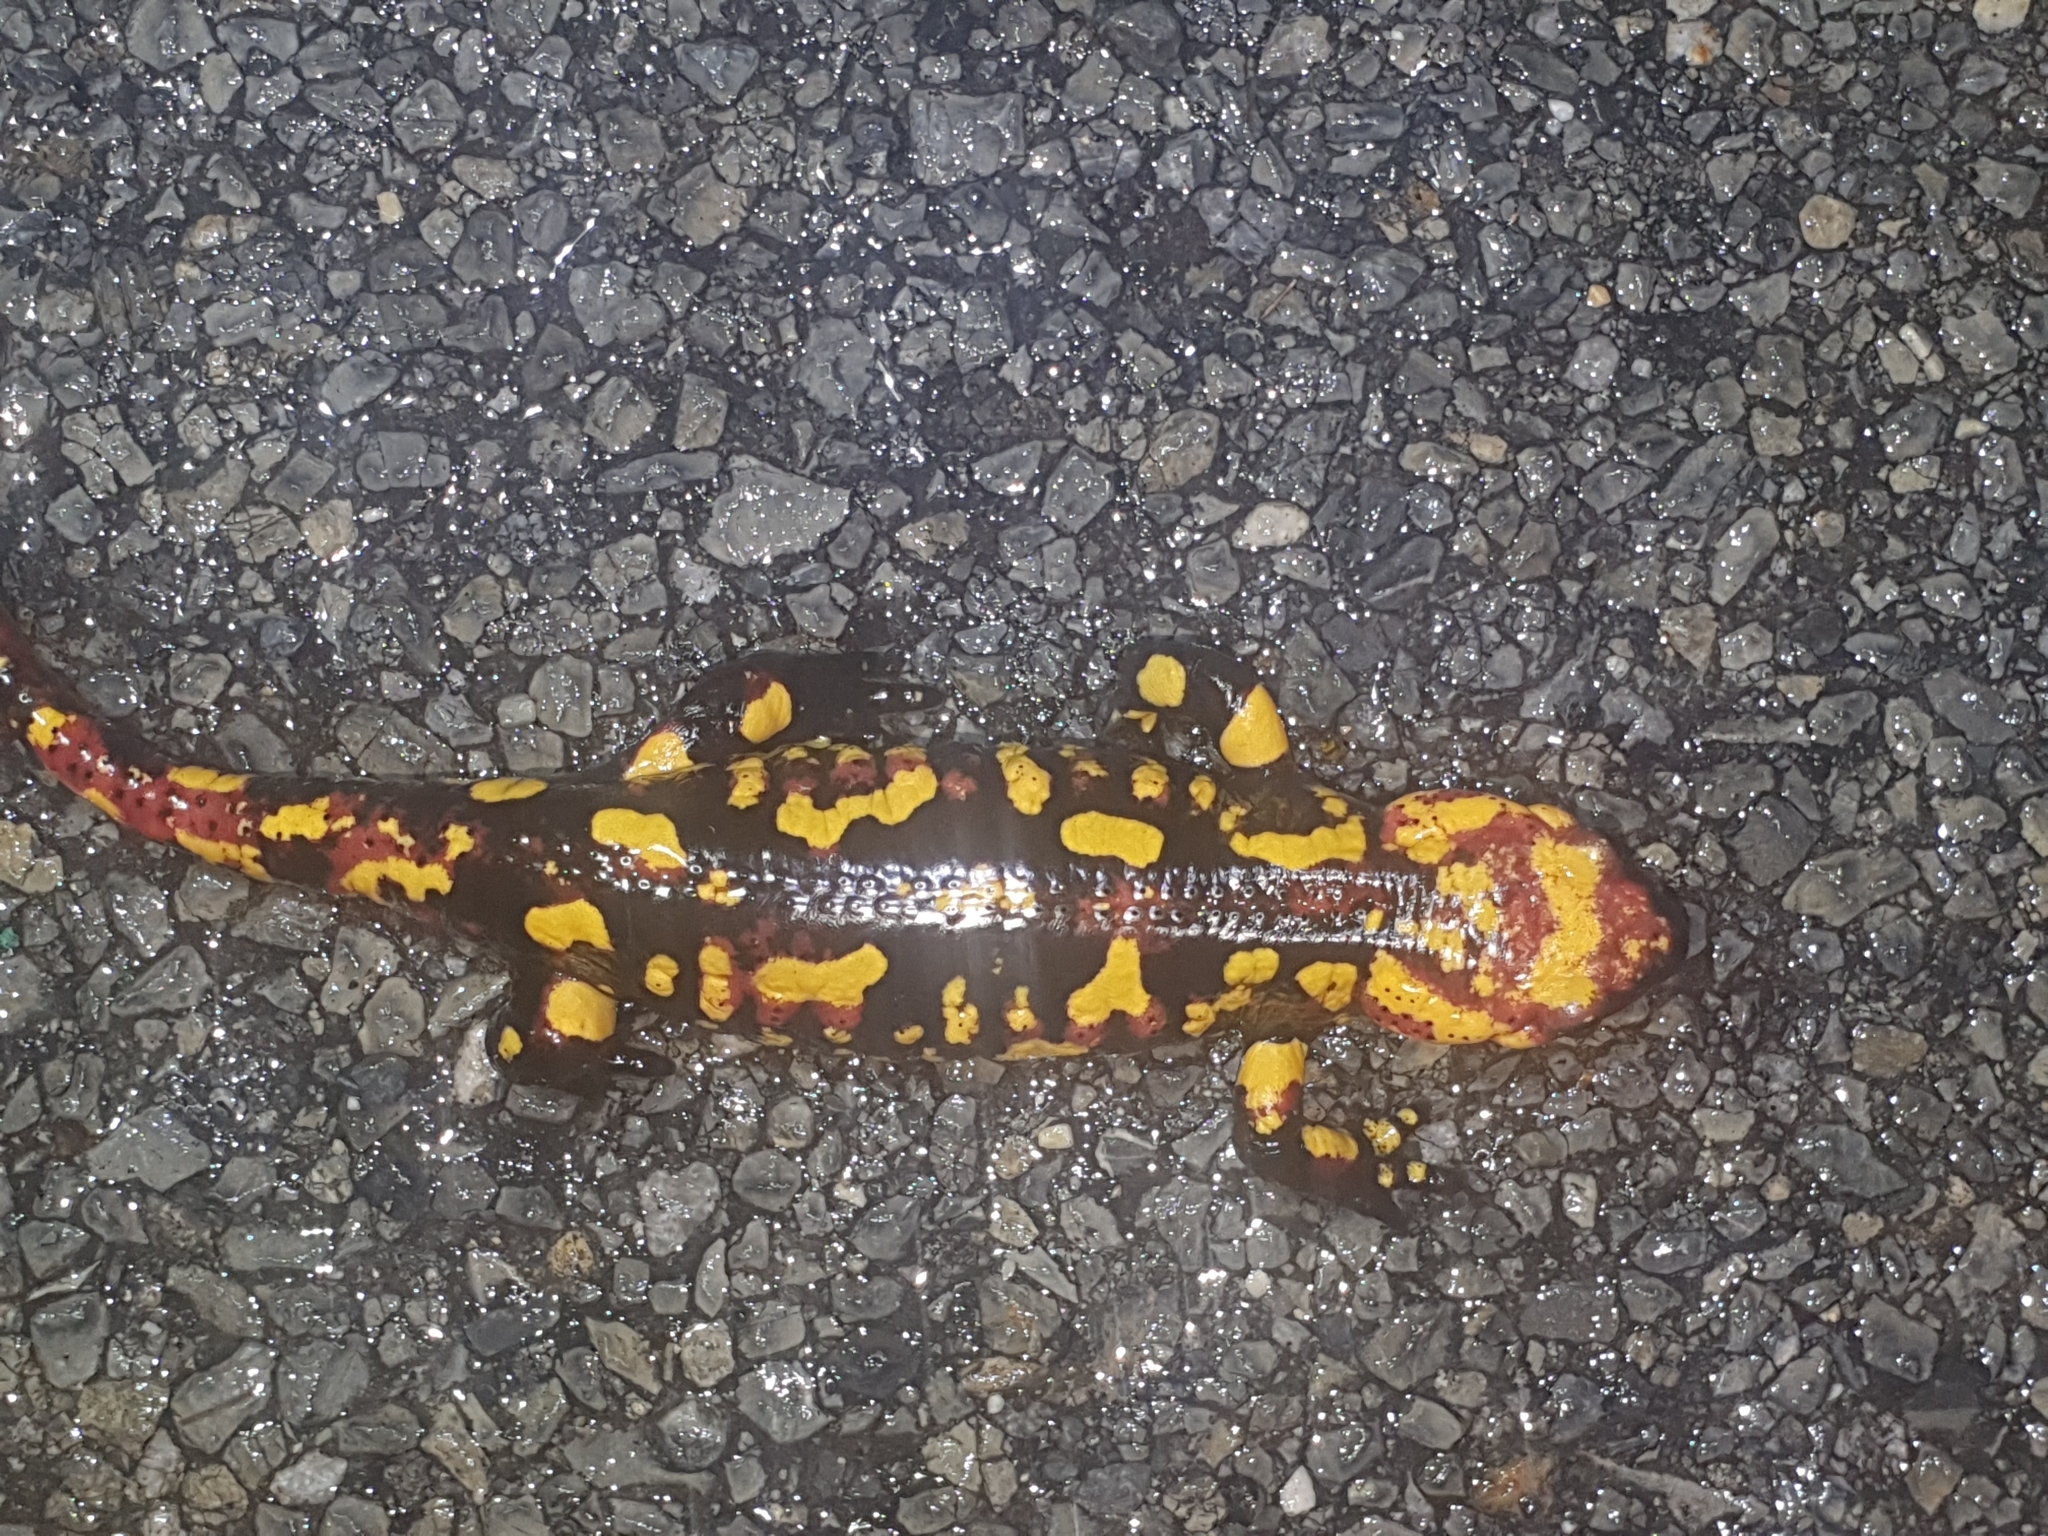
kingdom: Animalia
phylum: Chordata
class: Amphibia
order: Caudata
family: Salamandridae
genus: Salamandra
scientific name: Salamandra salamandra
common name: Fire salamander
